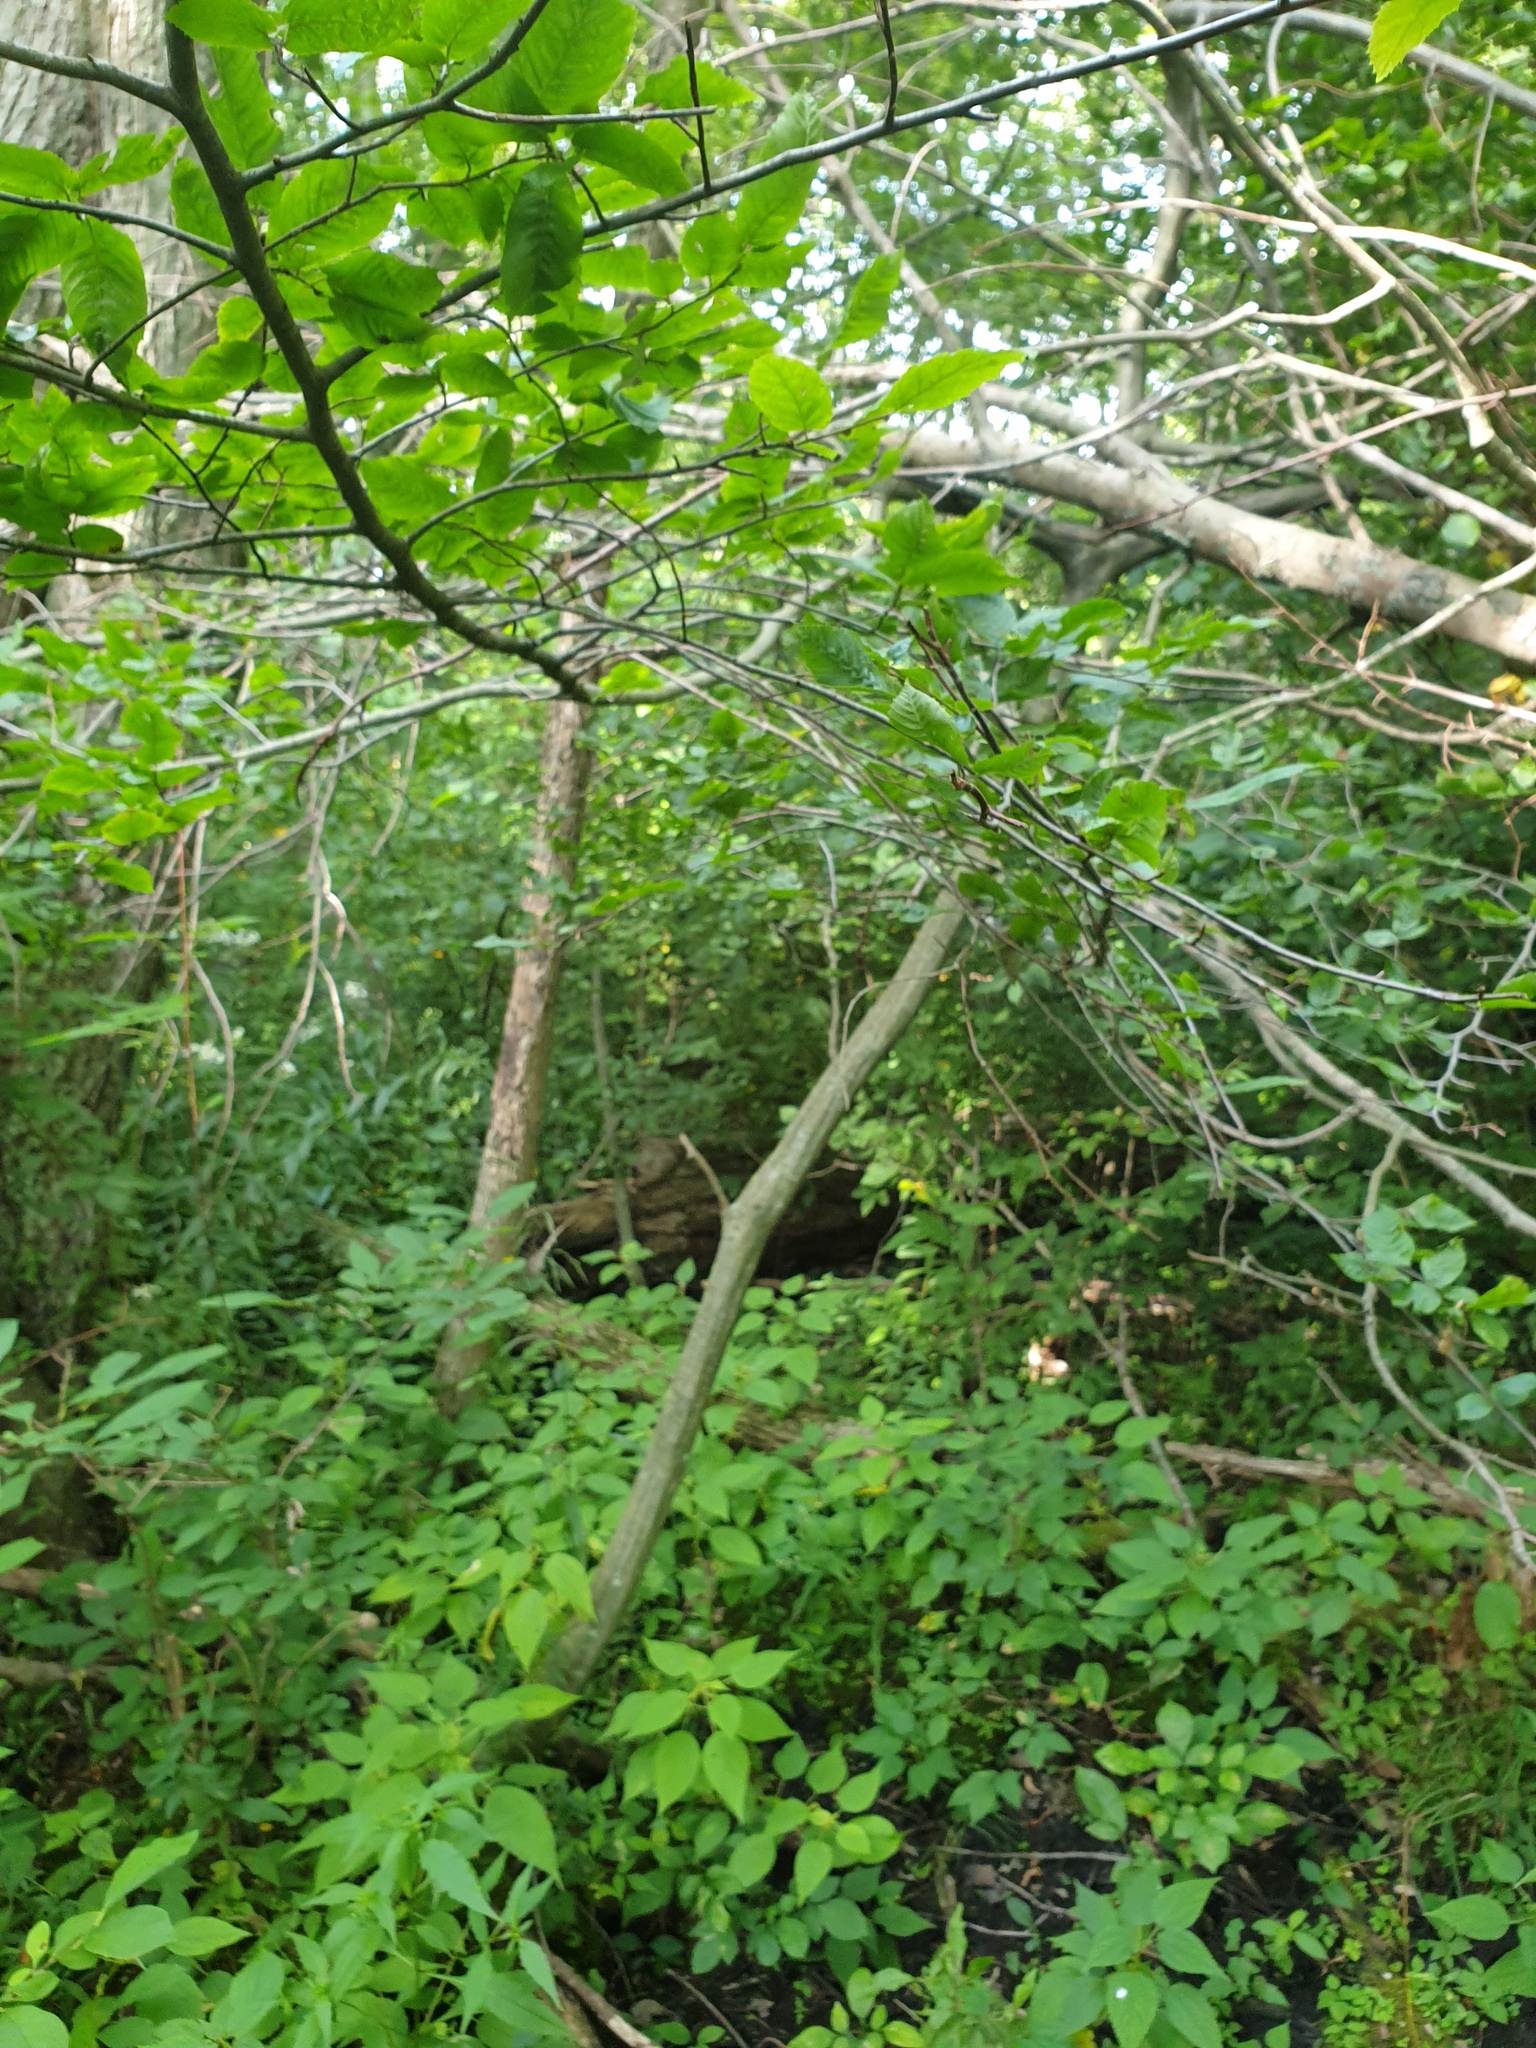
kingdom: Plantae
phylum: Tracheophyta
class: Magnoliopsida
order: Fagales
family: Betulaceae
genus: Carpinus
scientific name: Carpinus caroliniana
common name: American hornbeam
